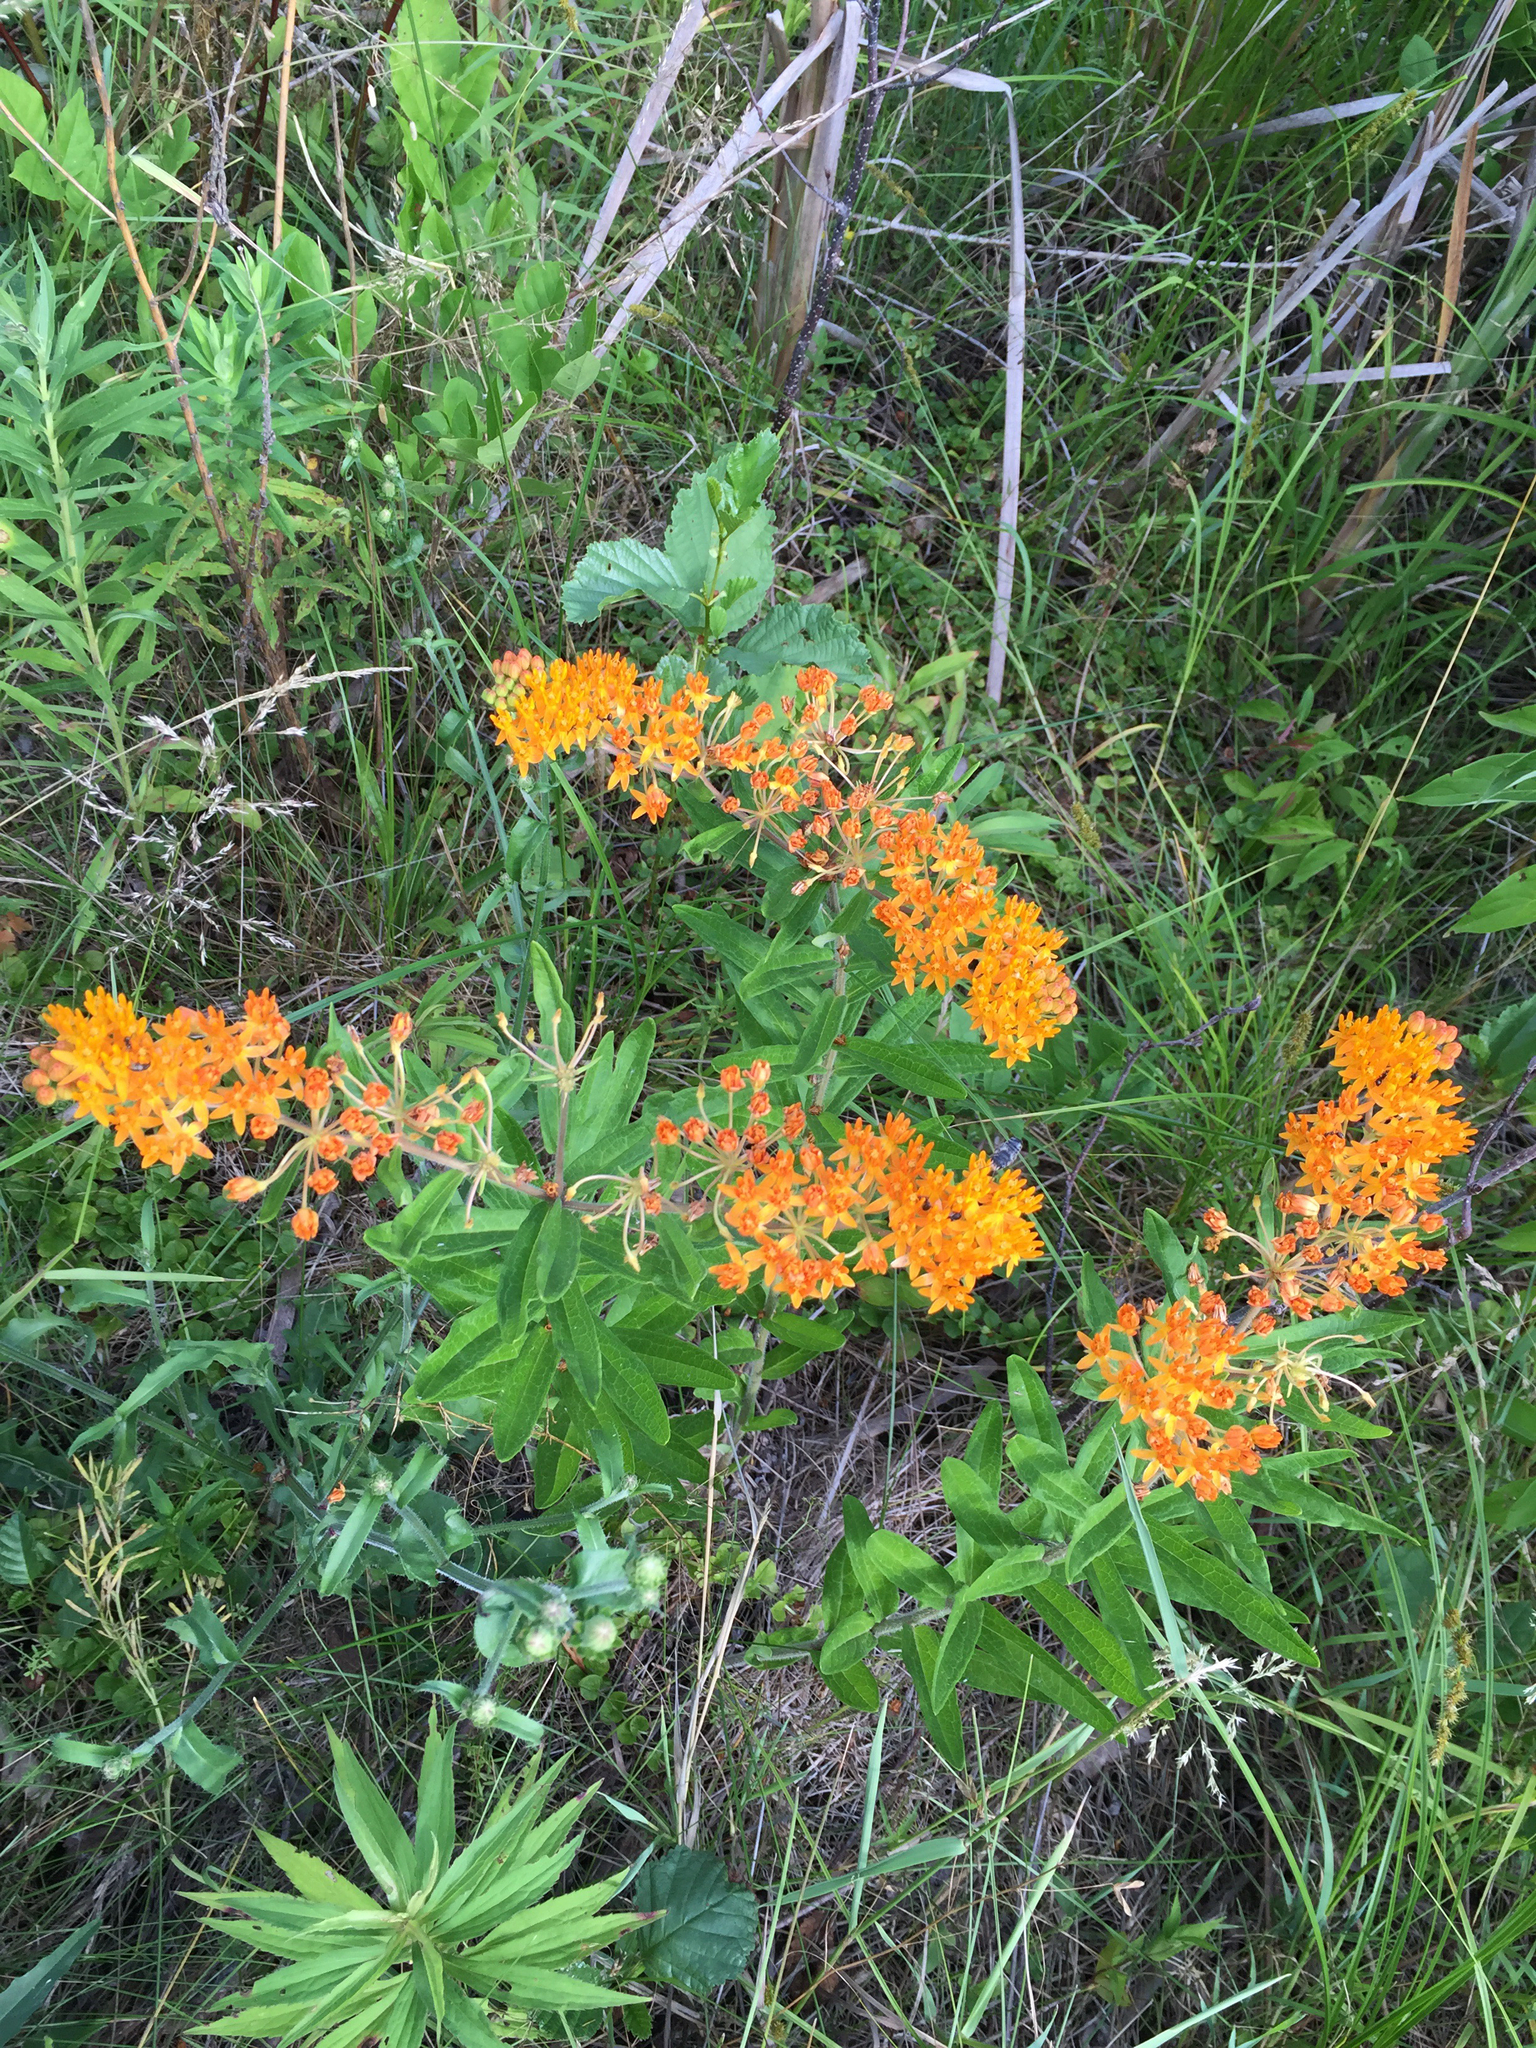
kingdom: Plantae
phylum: Tracheophyta
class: Magnoliopsida
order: Gentianales
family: Apocynaceae
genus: Asclepias
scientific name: Asclepias tuberosa
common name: Butterfly milkweed
